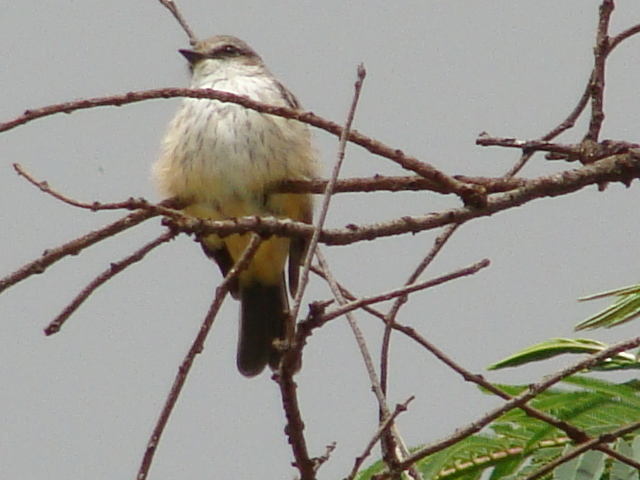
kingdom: Animalia
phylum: Chordata
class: Aves
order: Passeriformes
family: Tyrannidae
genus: Pyrocephalus
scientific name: Pyrocephalus rubinus
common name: Vermilion flycatcher
